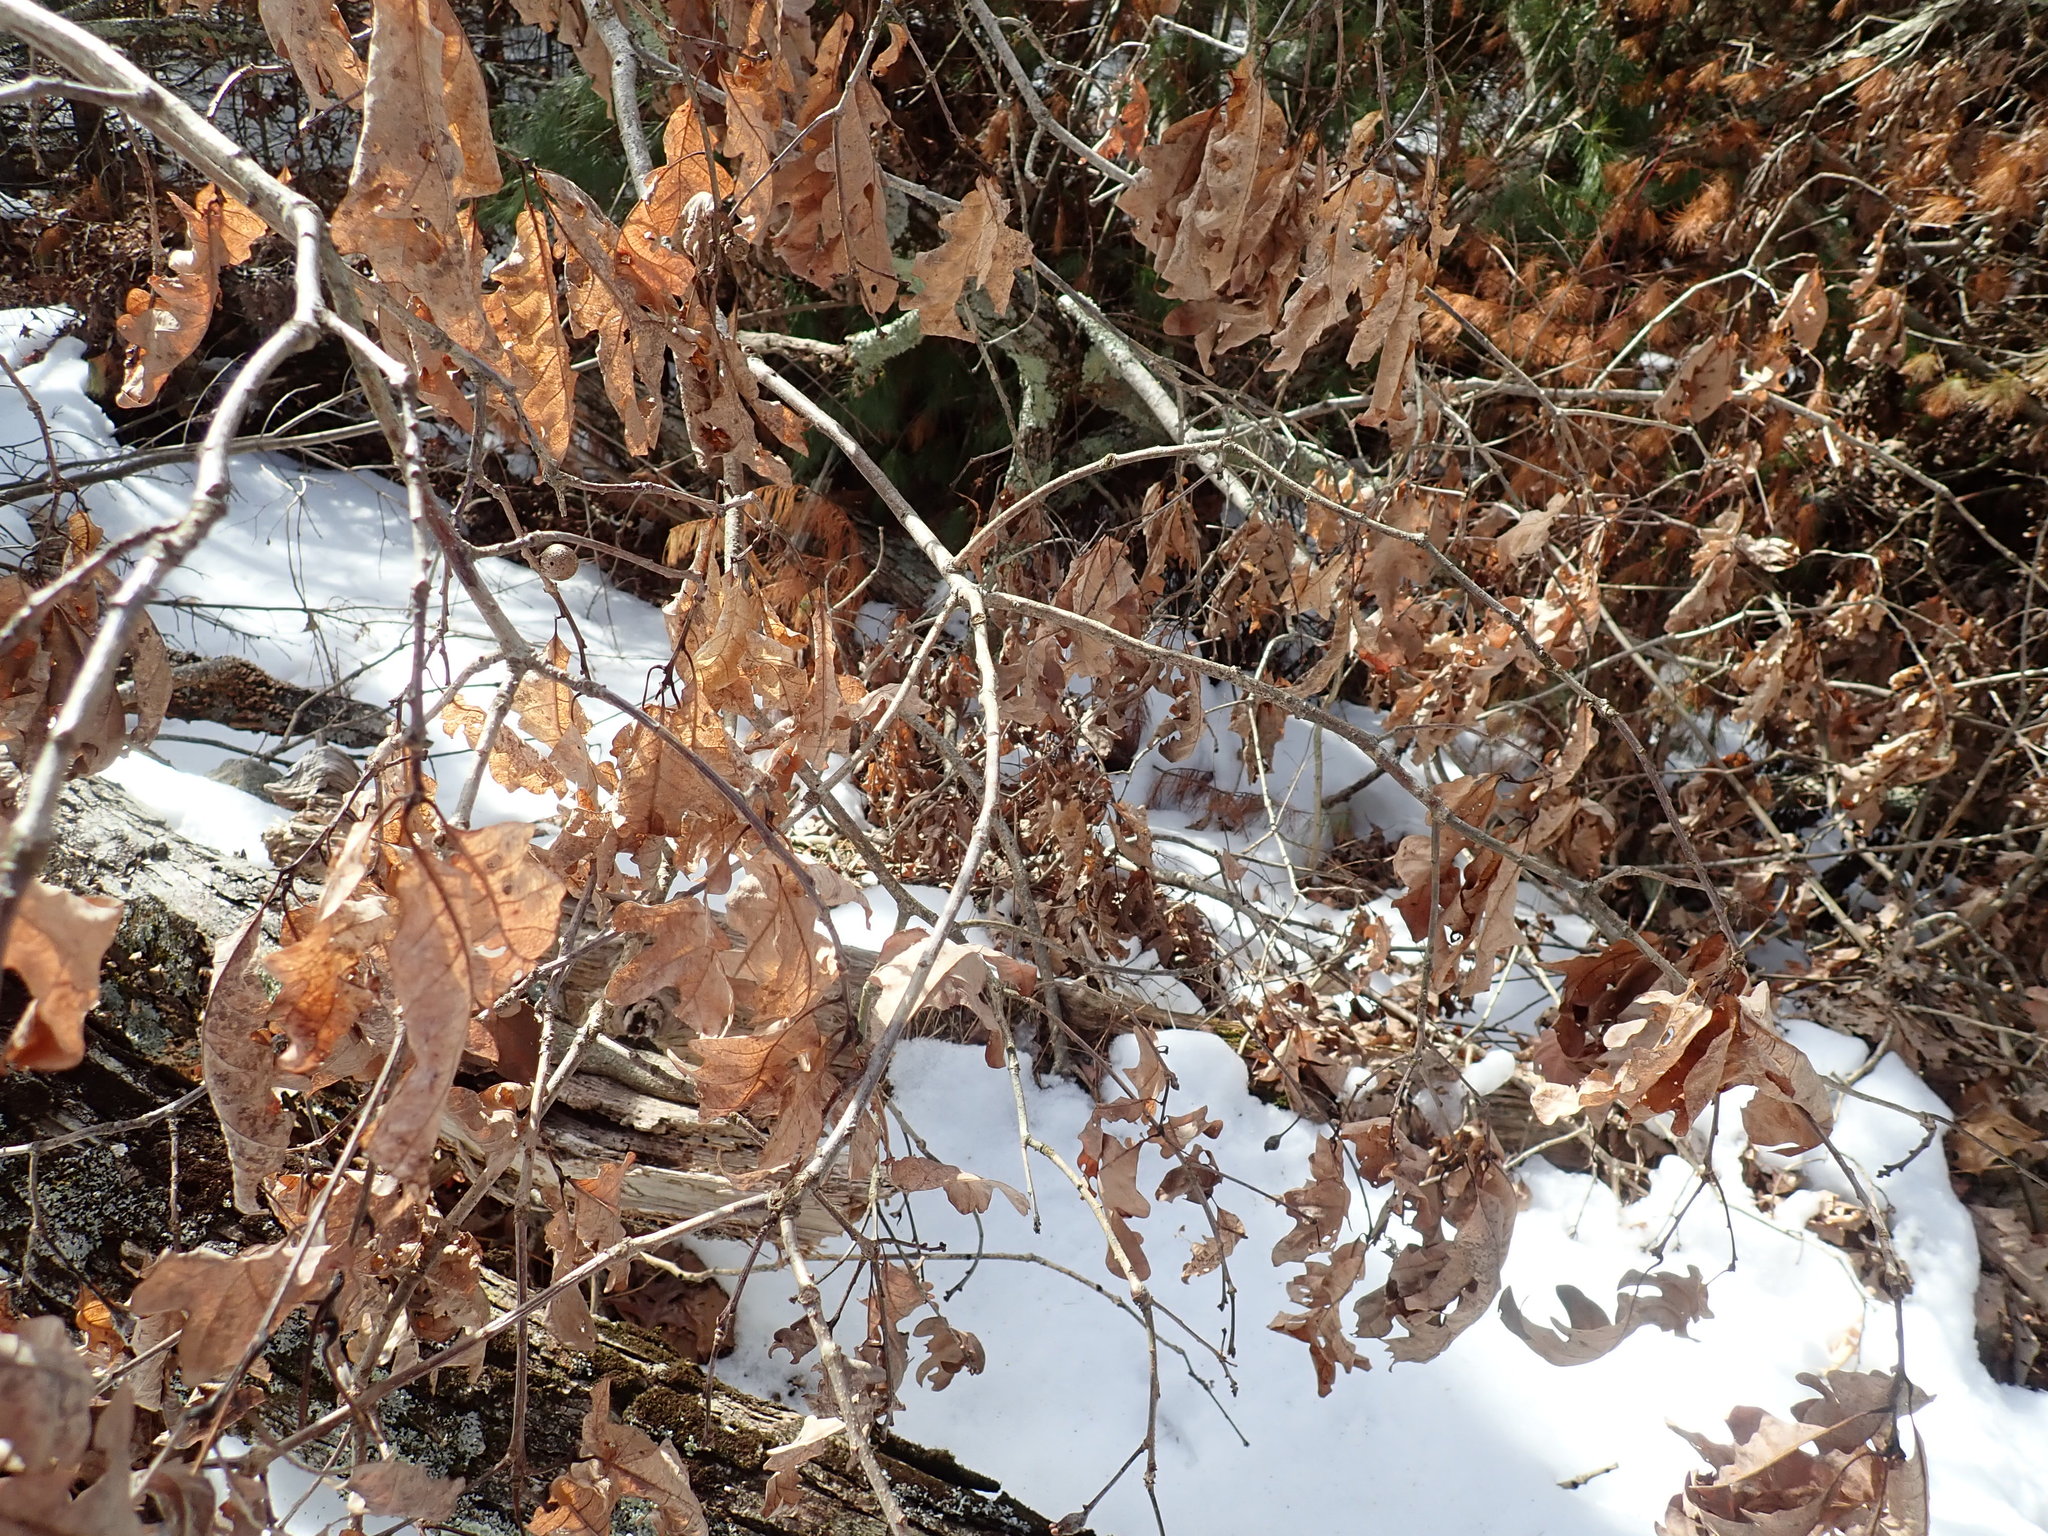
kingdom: Animalia
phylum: Arthropoda
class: Insecta
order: Hymenoptera
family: Cynipidae
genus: Callirhytis
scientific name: Callirhytis clavula
